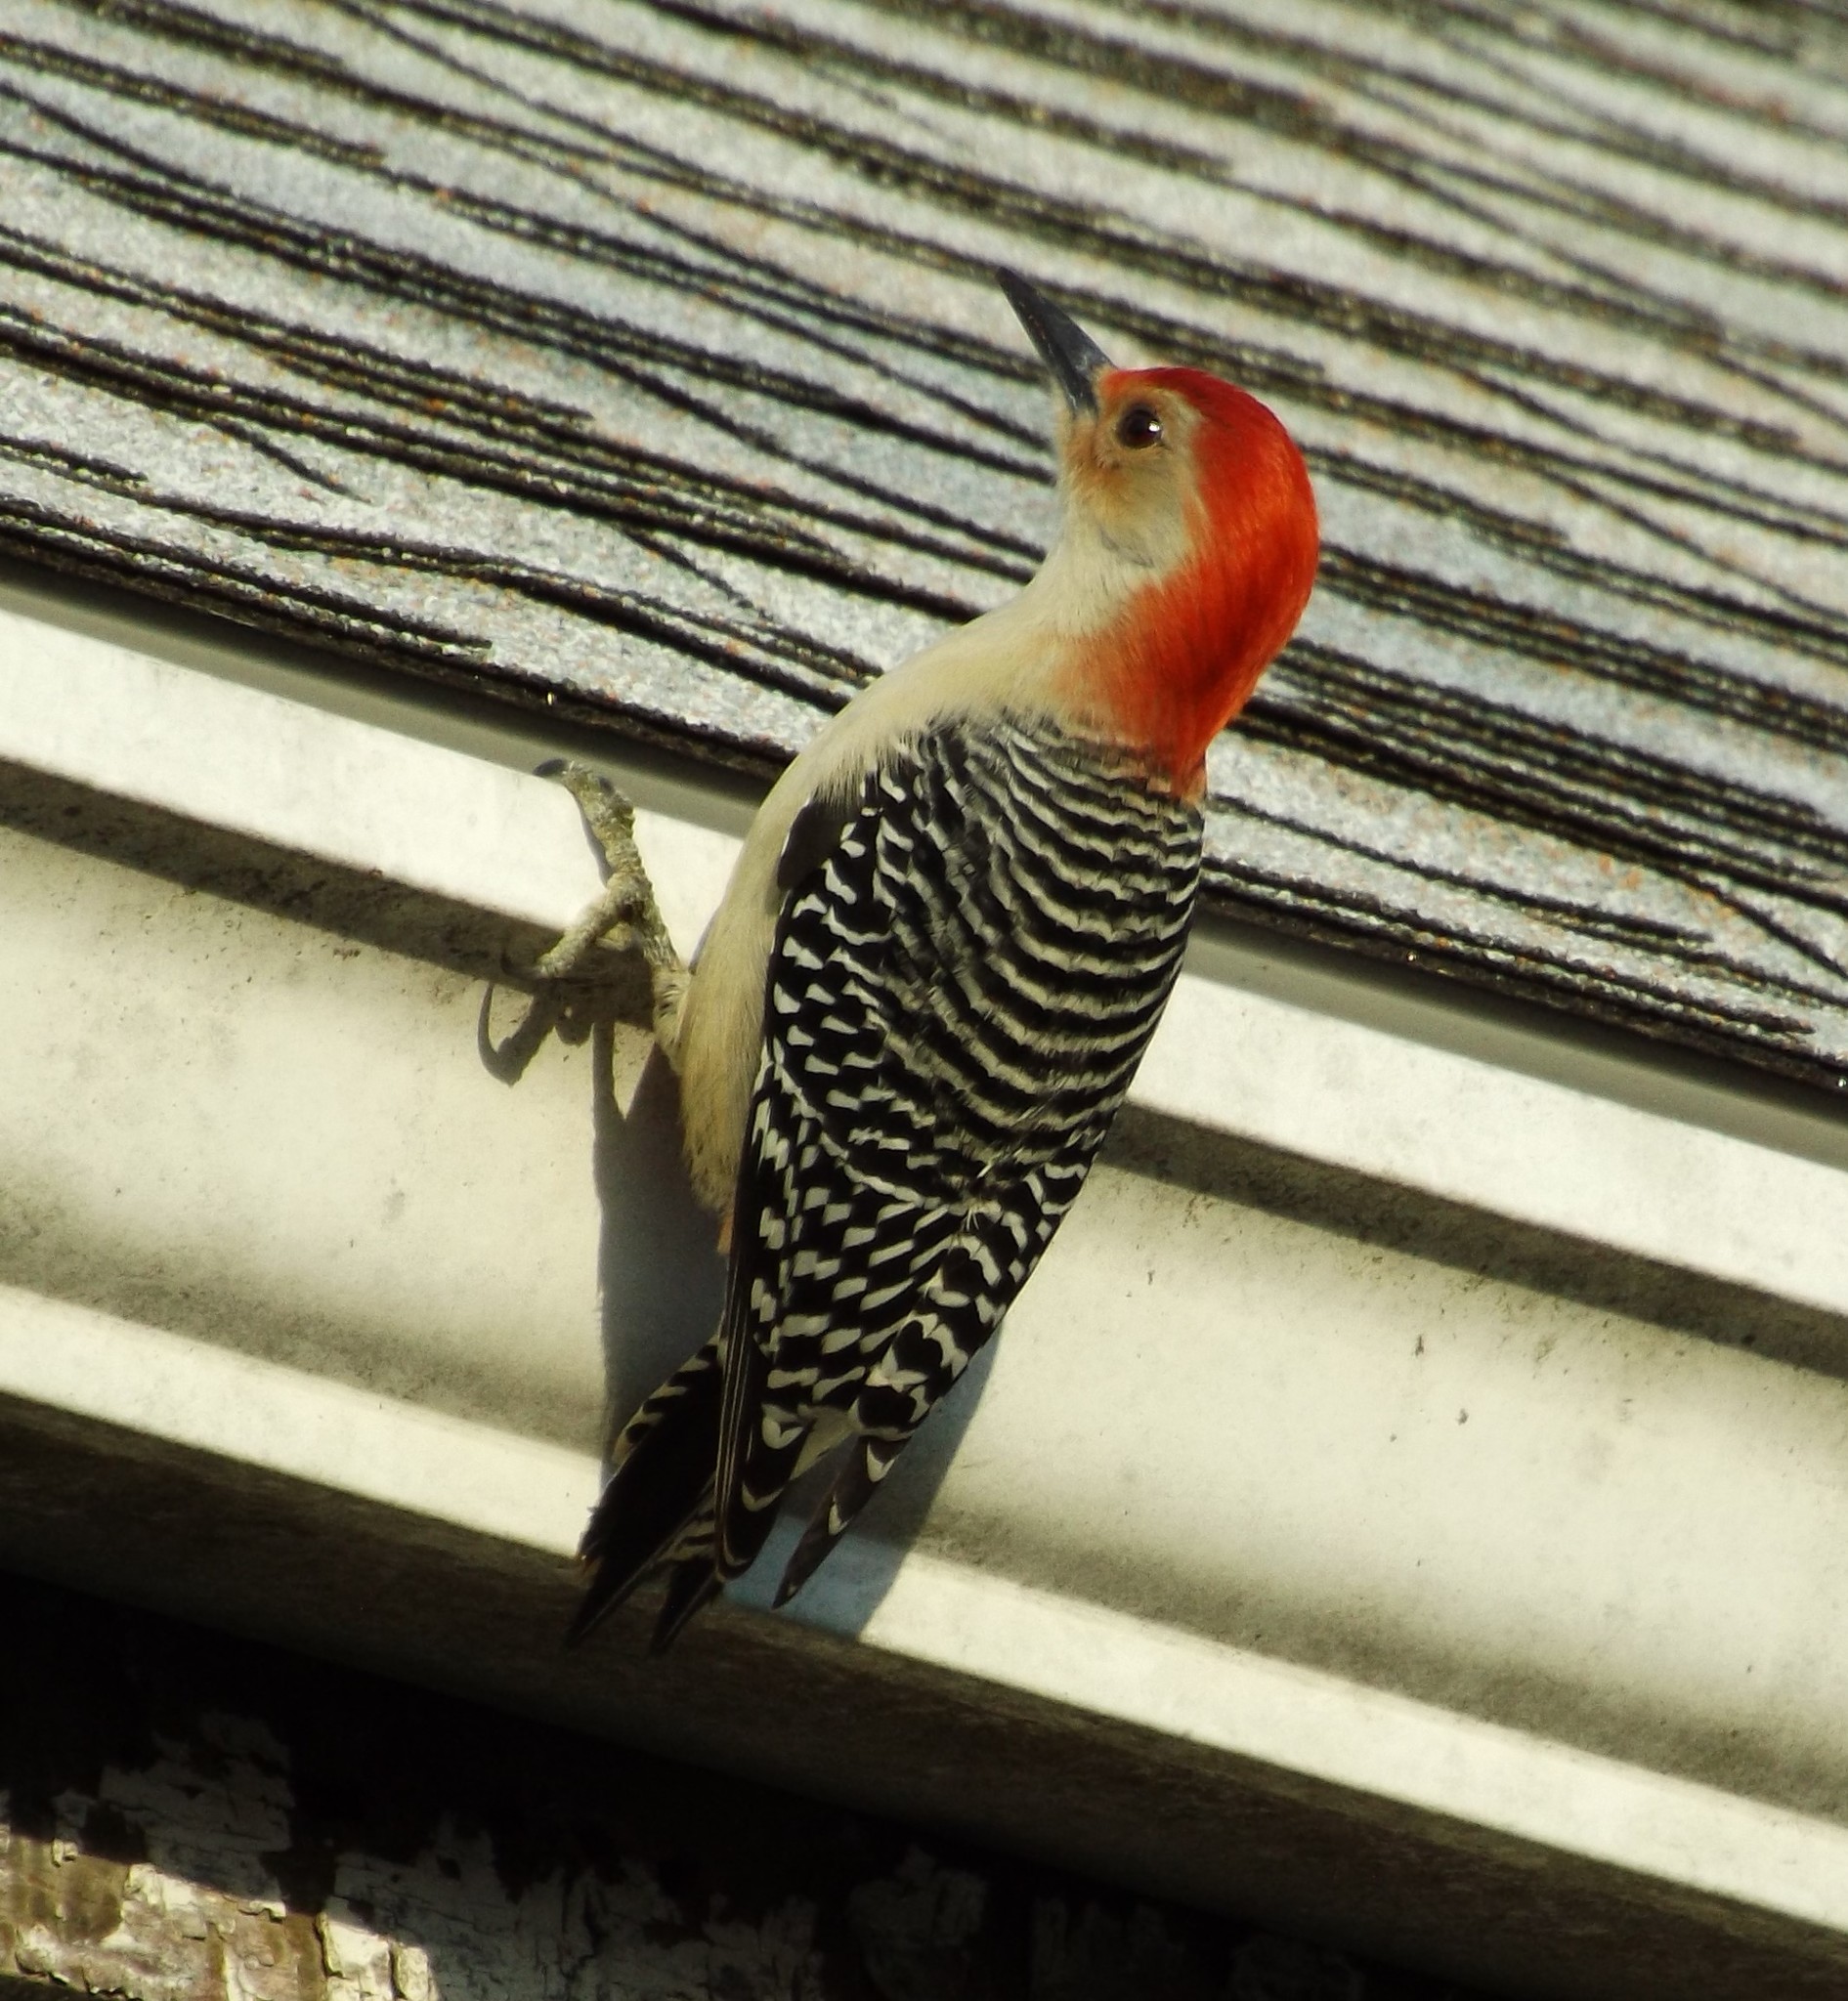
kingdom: Animalia
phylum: Chordata
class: Aves
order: Piciformes
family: Picidae
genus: Melanerpes
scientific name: Melanerpes carolinus
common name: Red-bellied woodpecker
